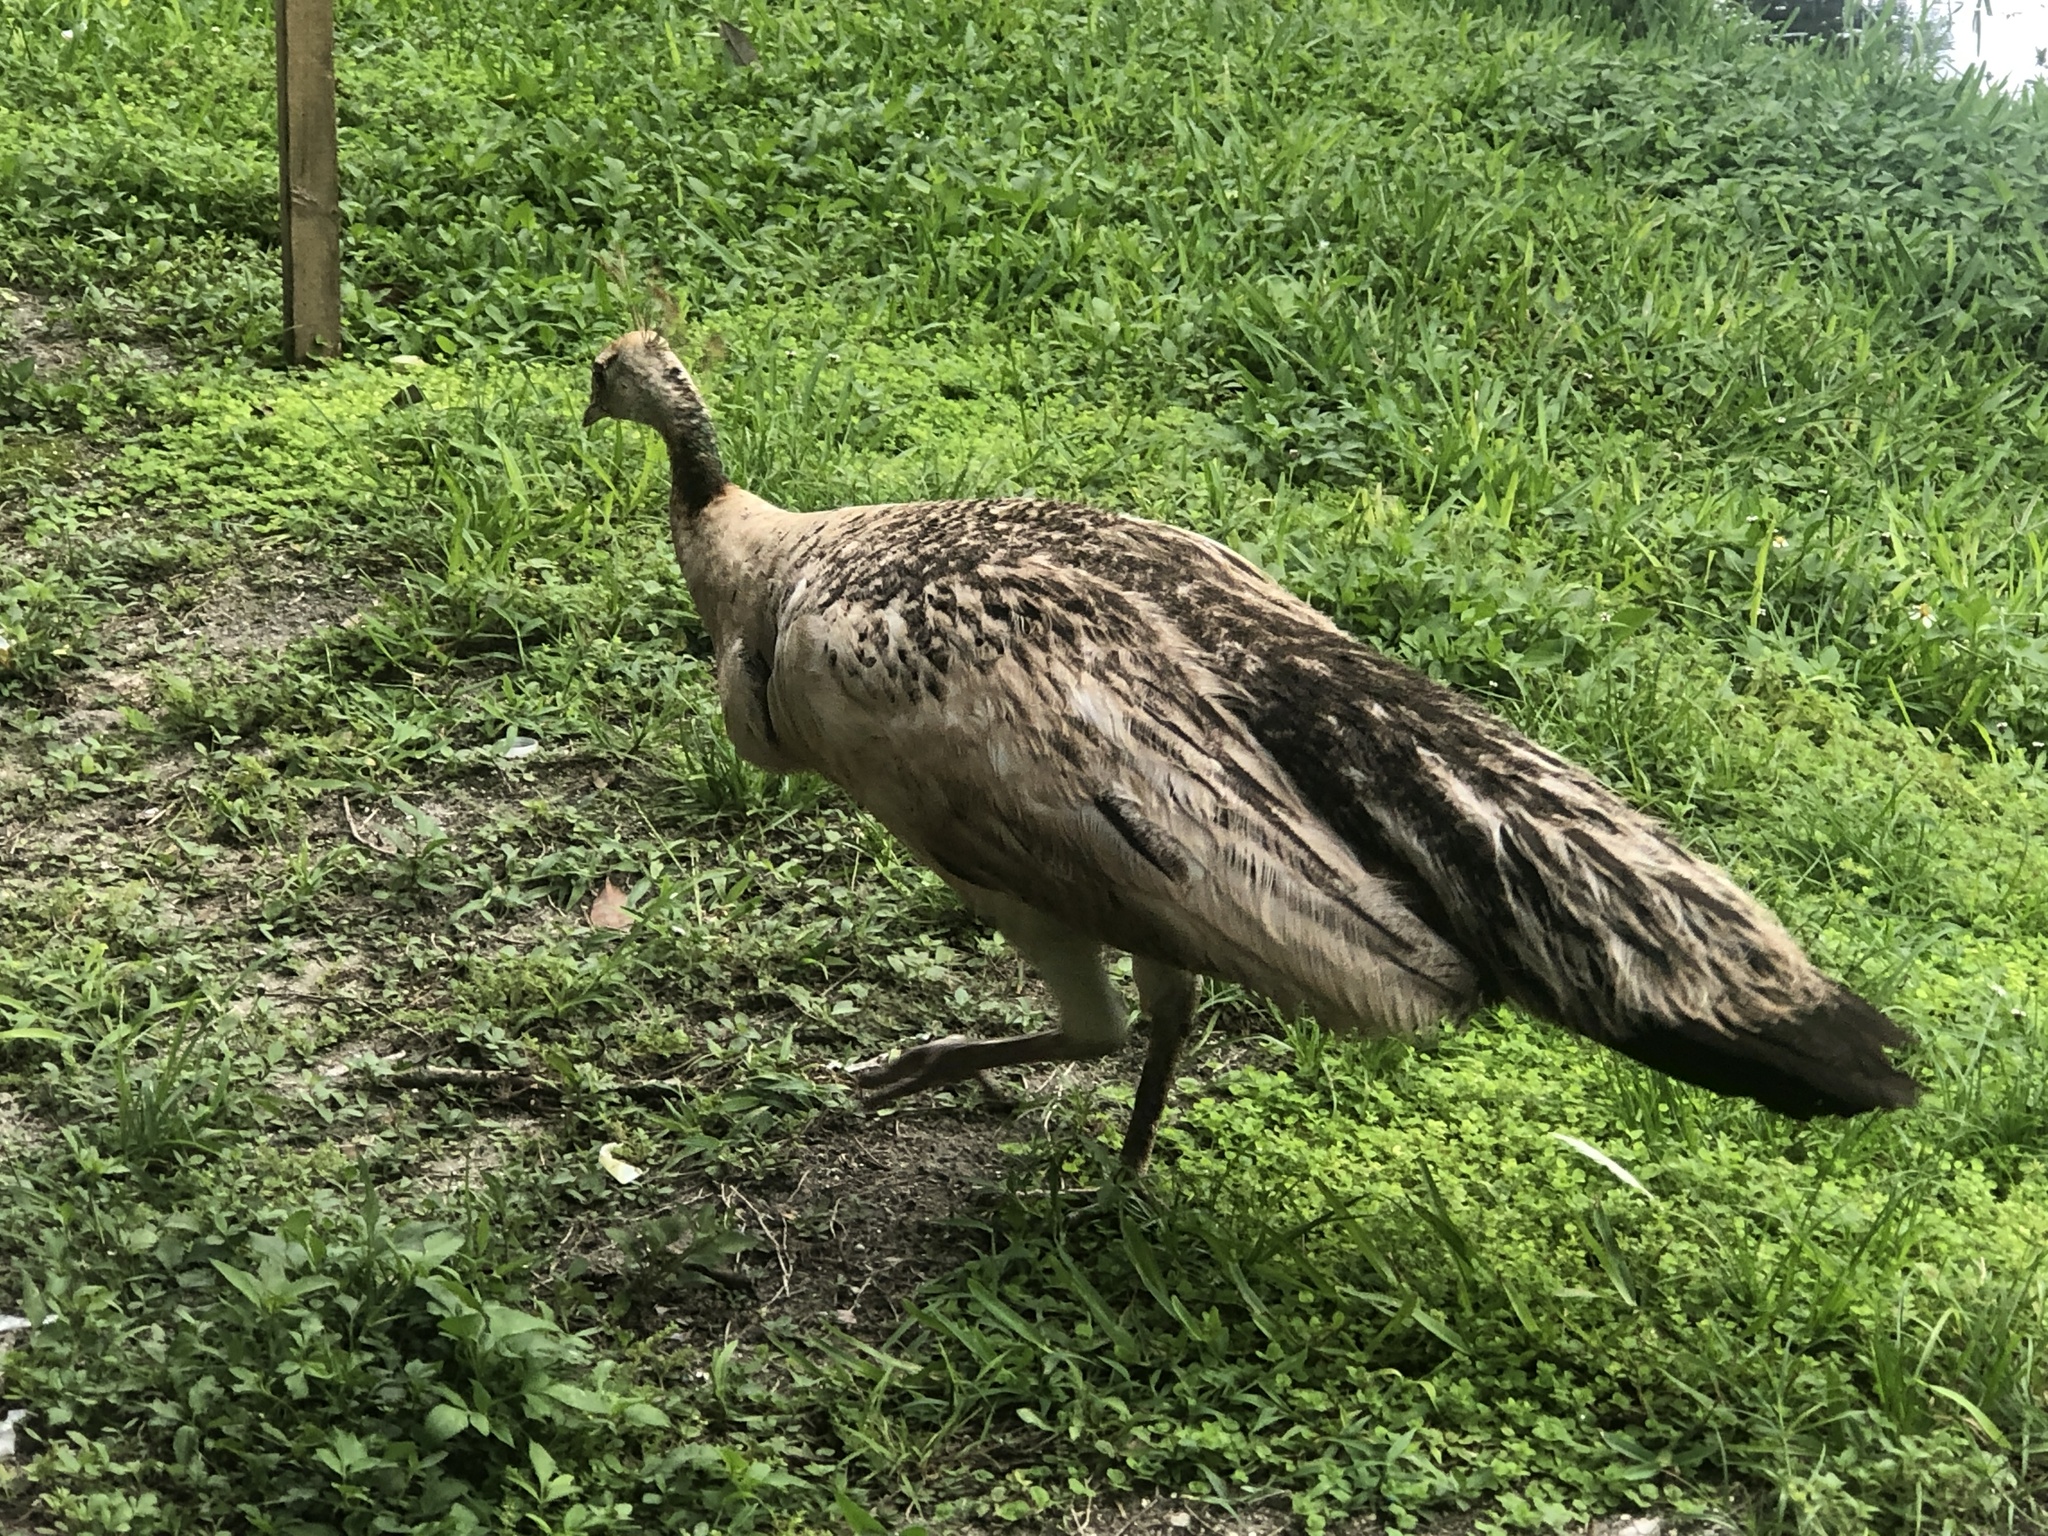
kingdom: Animalia
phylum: Chordata
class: Aves
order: Galliformes
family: Phasianidae
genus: Pavo
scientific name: Pavo cristatus
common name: Indian peafowl
